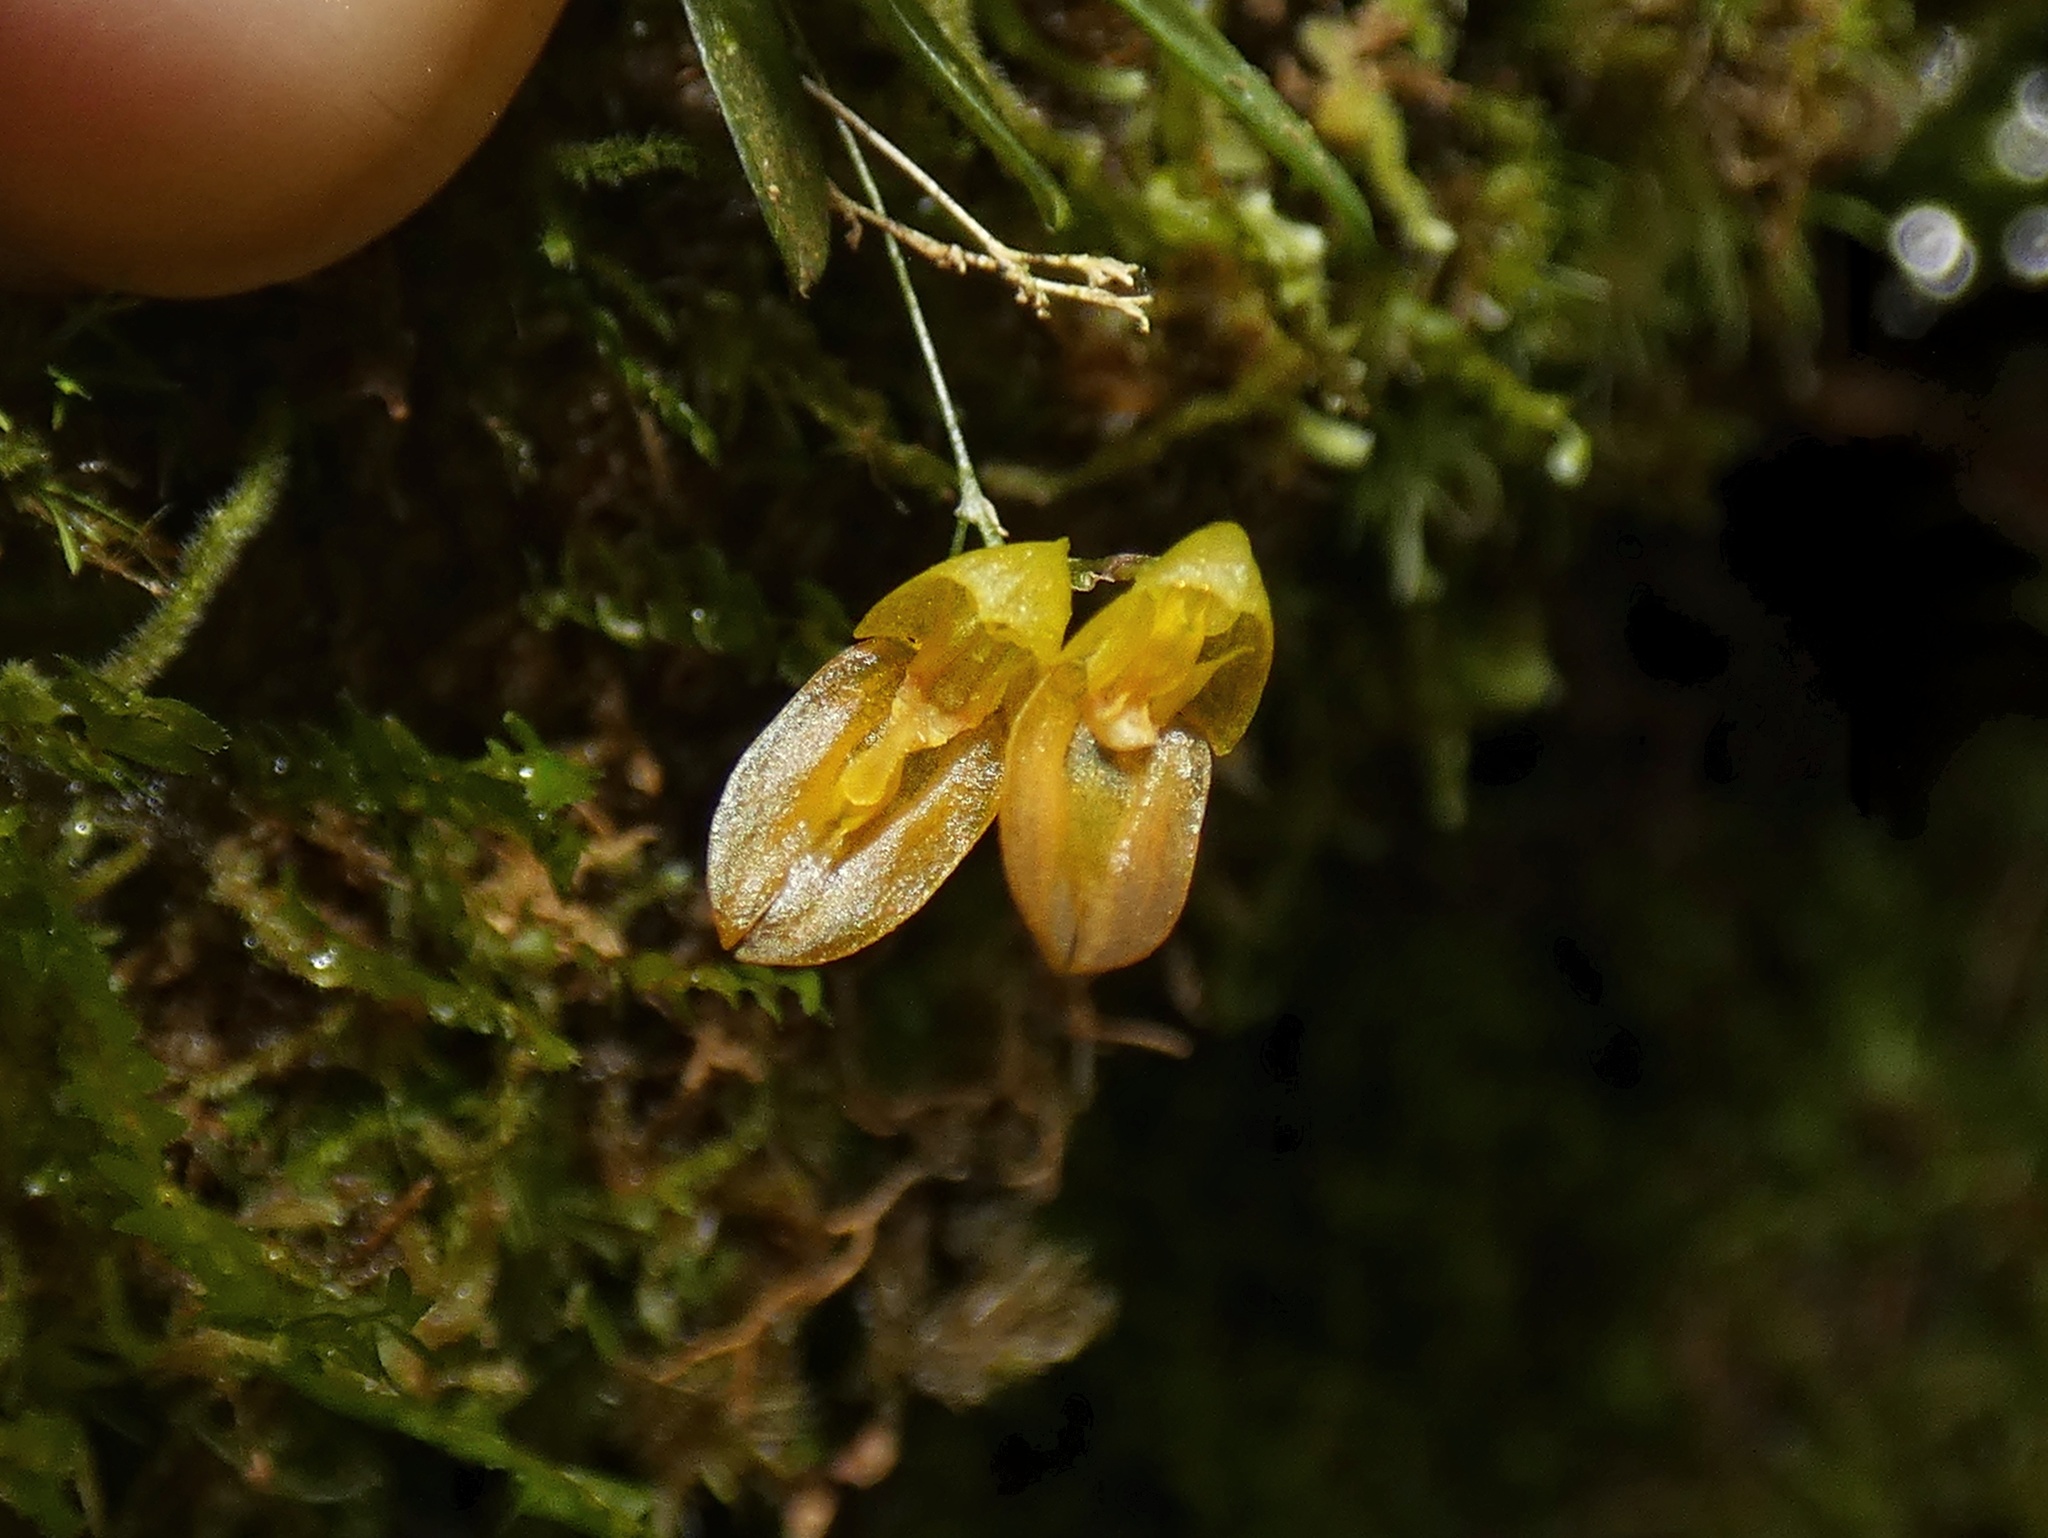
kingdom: Plantae
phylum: Tracheophyta
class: Liliopsida
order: Asparagales
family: Orchidaceae
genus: Specklinia
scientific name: Specklinia colombiana
